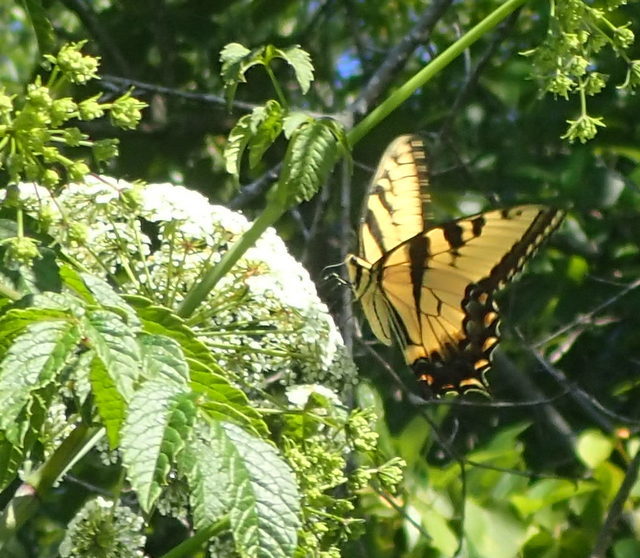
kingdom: Animalia
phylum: Arthropoda
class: Insecta
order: Lepidoptera
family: Papilionidae
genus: Papilio
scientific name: Papilio glaucus
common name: Tiger swallowtail
